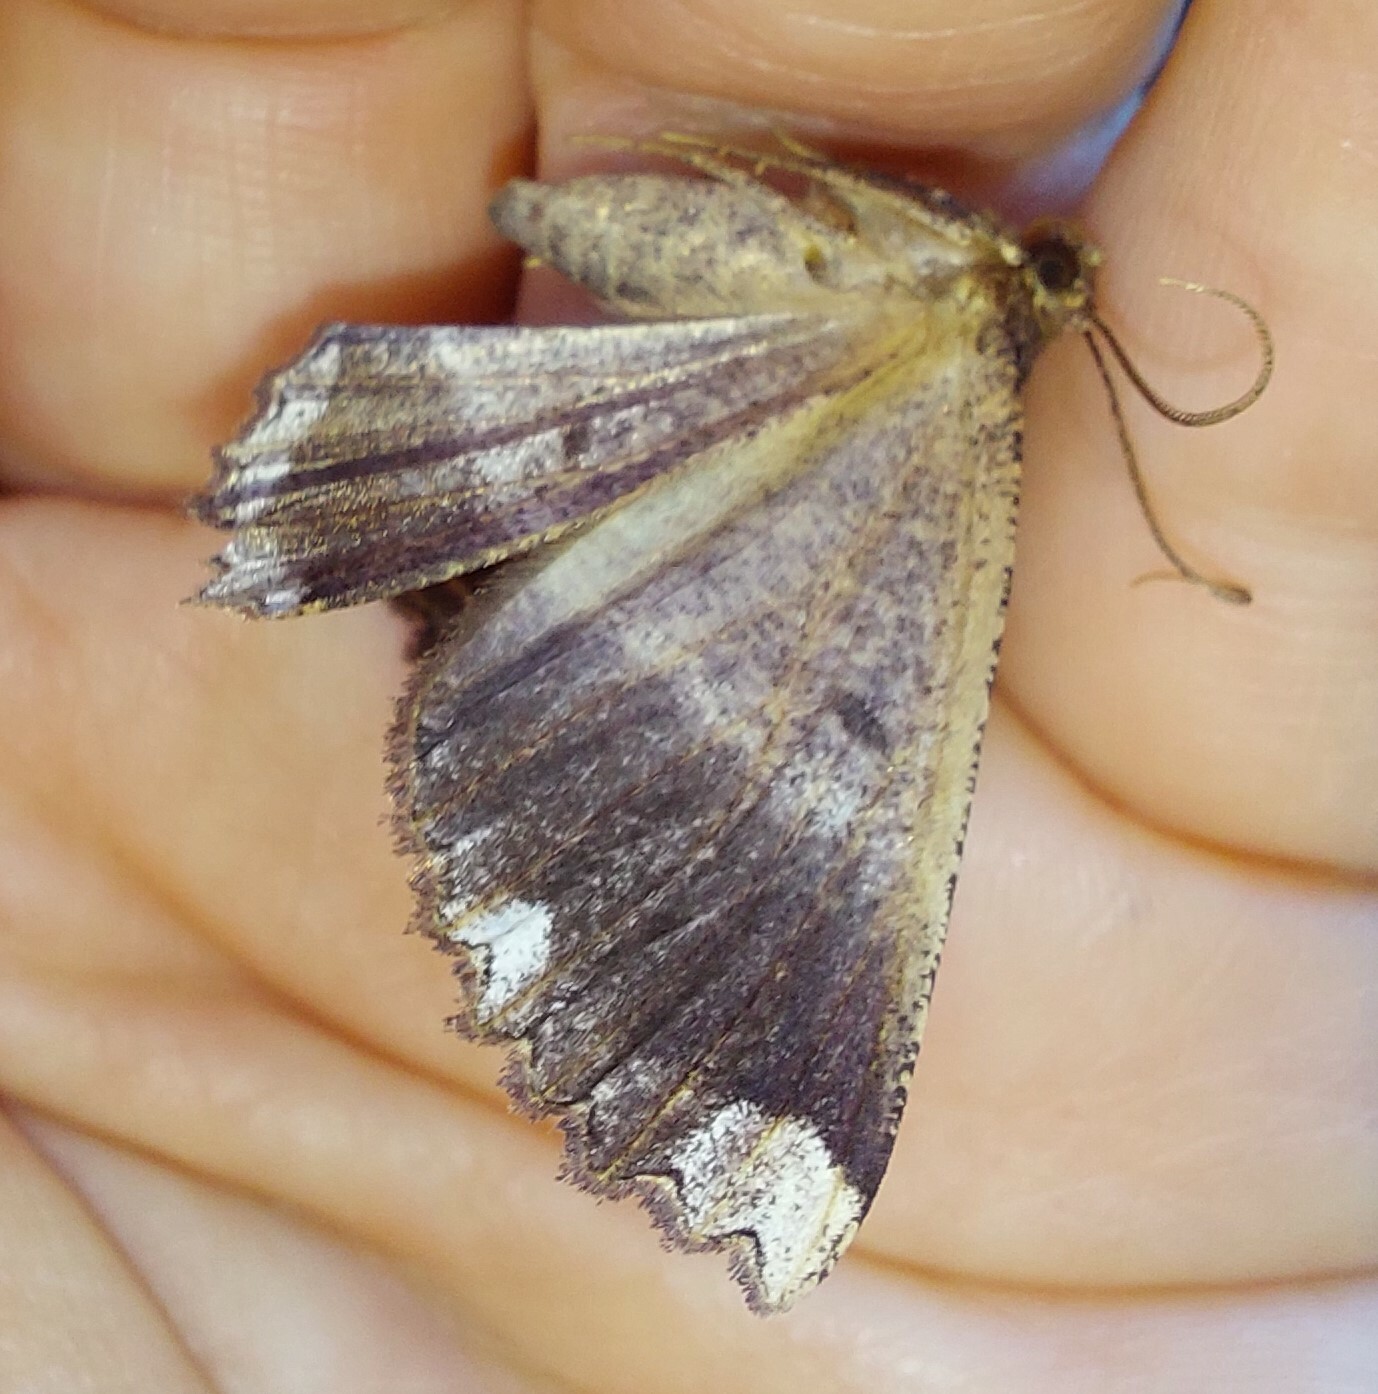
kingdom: Animalia
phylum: Arthropoda
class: Insecta
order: Lepidoptera
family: Geometridae
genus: Gellonia
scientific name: Gellonia dejectaria
